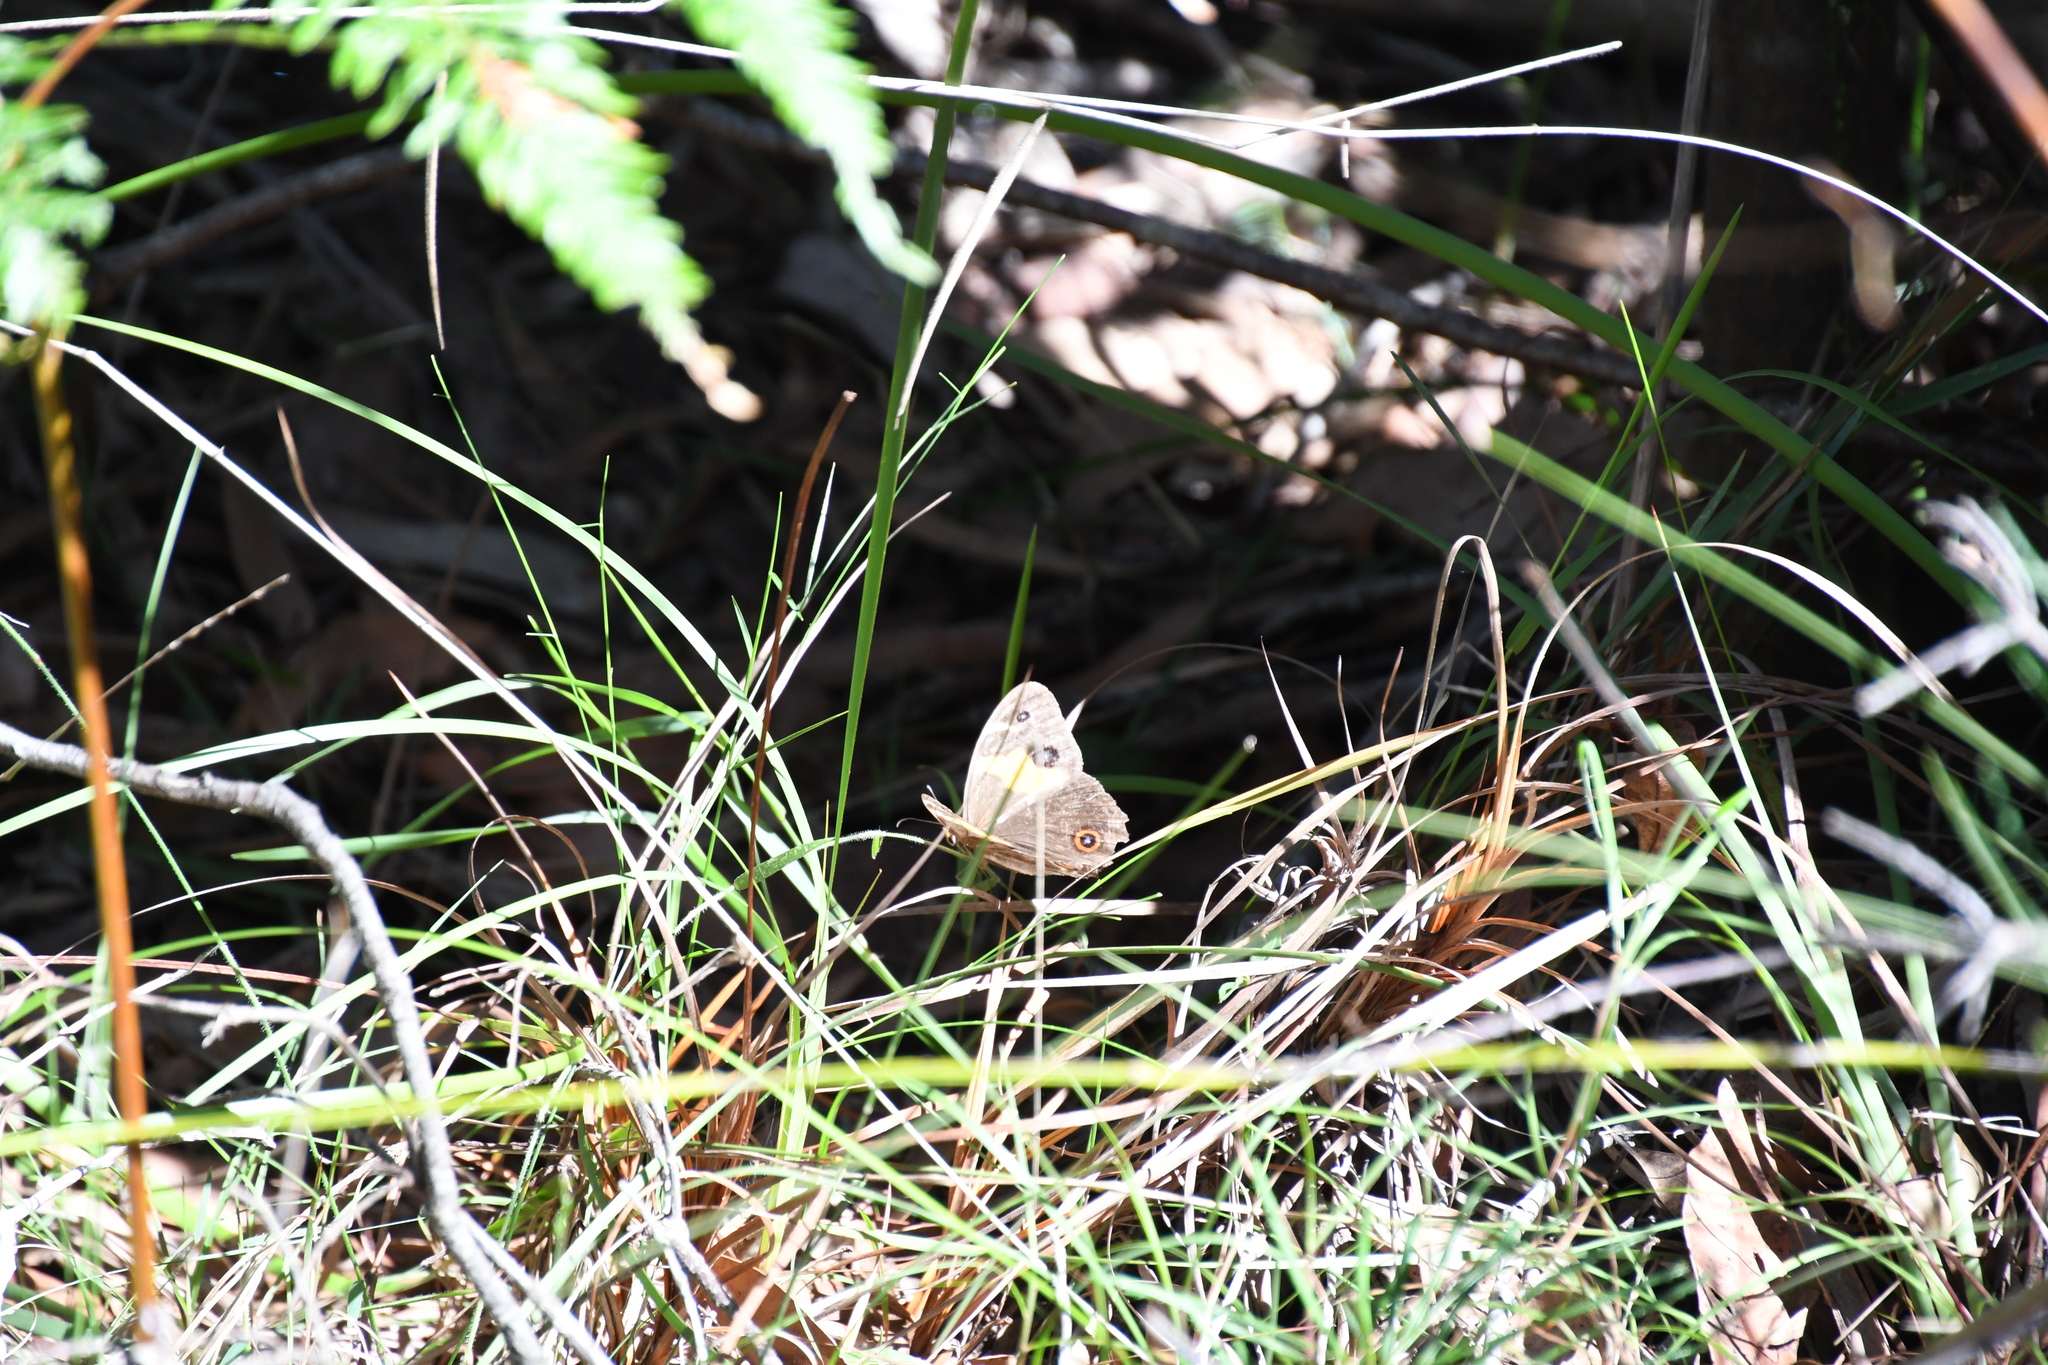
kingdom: Animalia
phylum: Arthropoda
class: Insecta
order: Lepidoptera
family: Nymphalidae
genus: Tisiphone
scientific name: Tisiphone abeona
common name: Swordgrass brown
